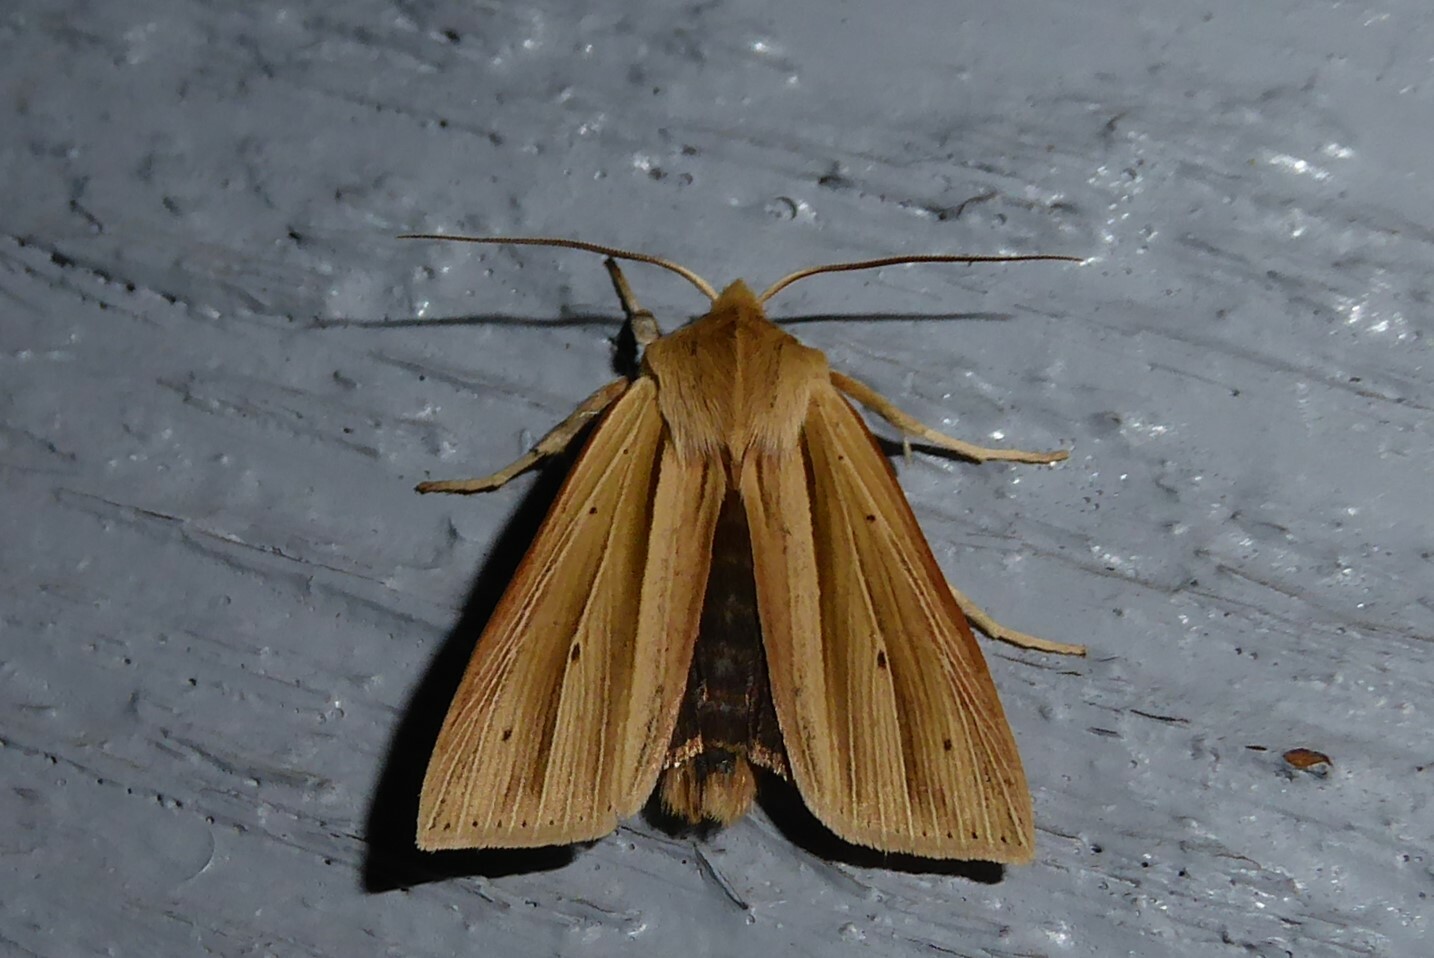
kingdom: Animalia
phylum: Arthropoda
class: Insecta
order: Lepidoptera
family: Noctuidae
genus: Ichneutica
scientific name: Ichneutica sulcana
